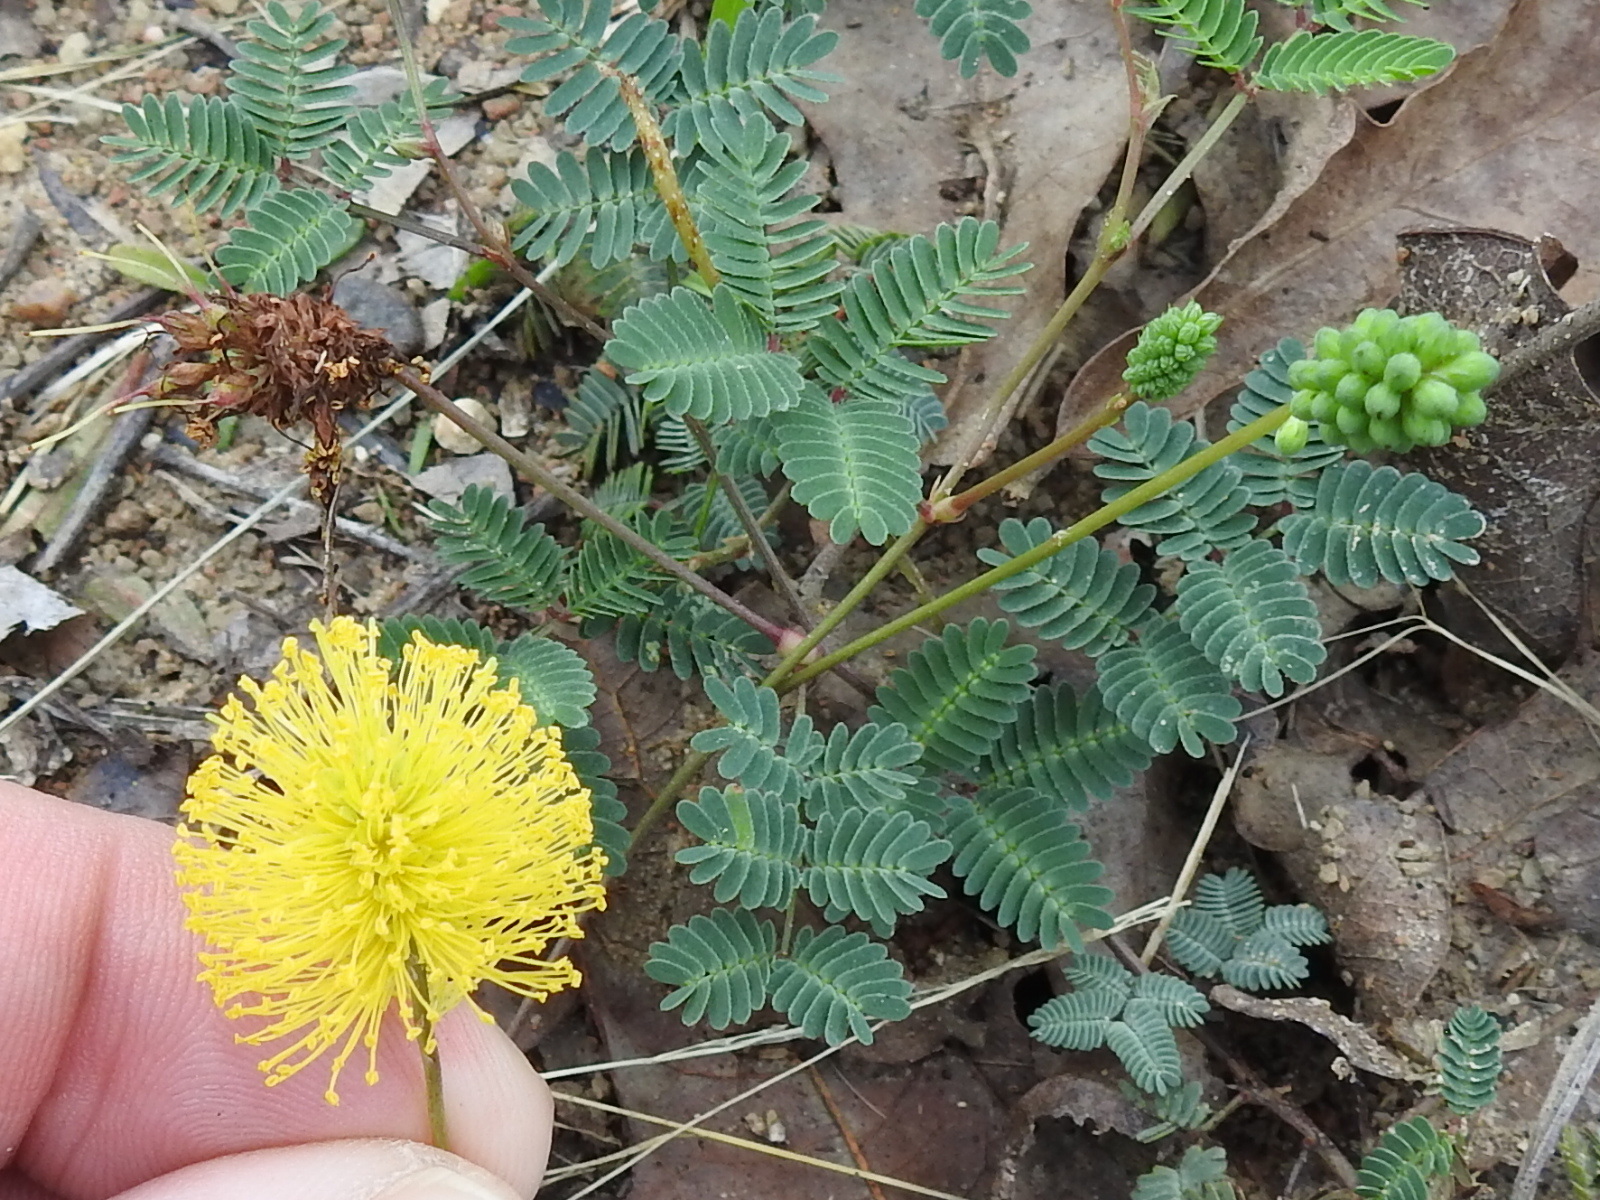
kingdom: Plantae
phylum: Tracheophyta
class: Magnoliopsida
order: Fabales
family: Fabaceae
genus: Neptunia
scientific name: Neptunia lutea
